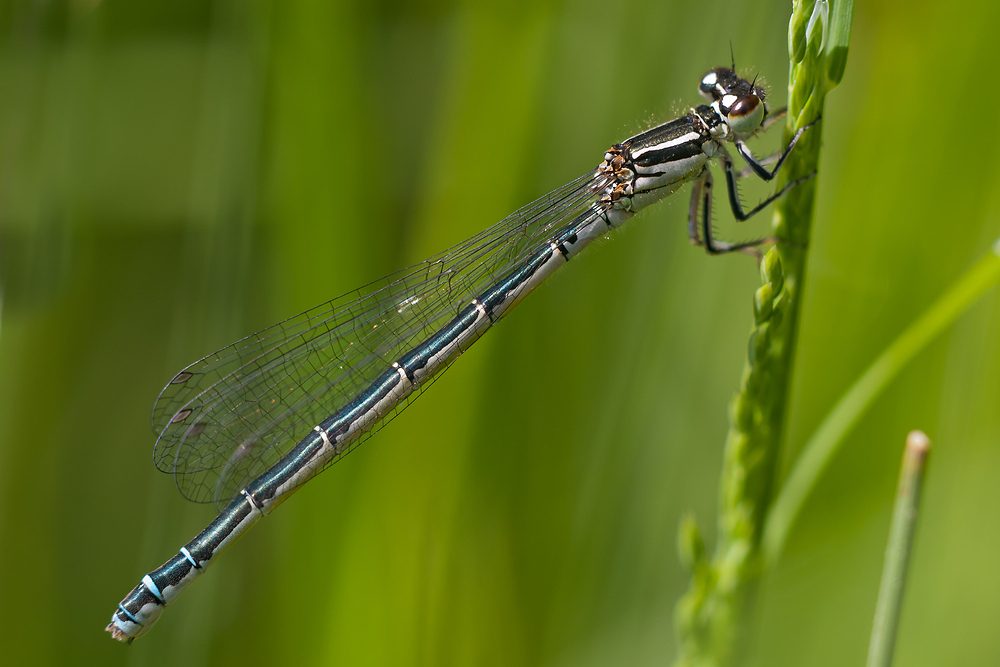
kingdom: Animalia
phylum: Arthropoda
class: Insecta
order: Odonata
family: Coenagrionidae
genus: Coenagrion
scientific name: Coenagrion mercuriale
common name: Southern damselfly
